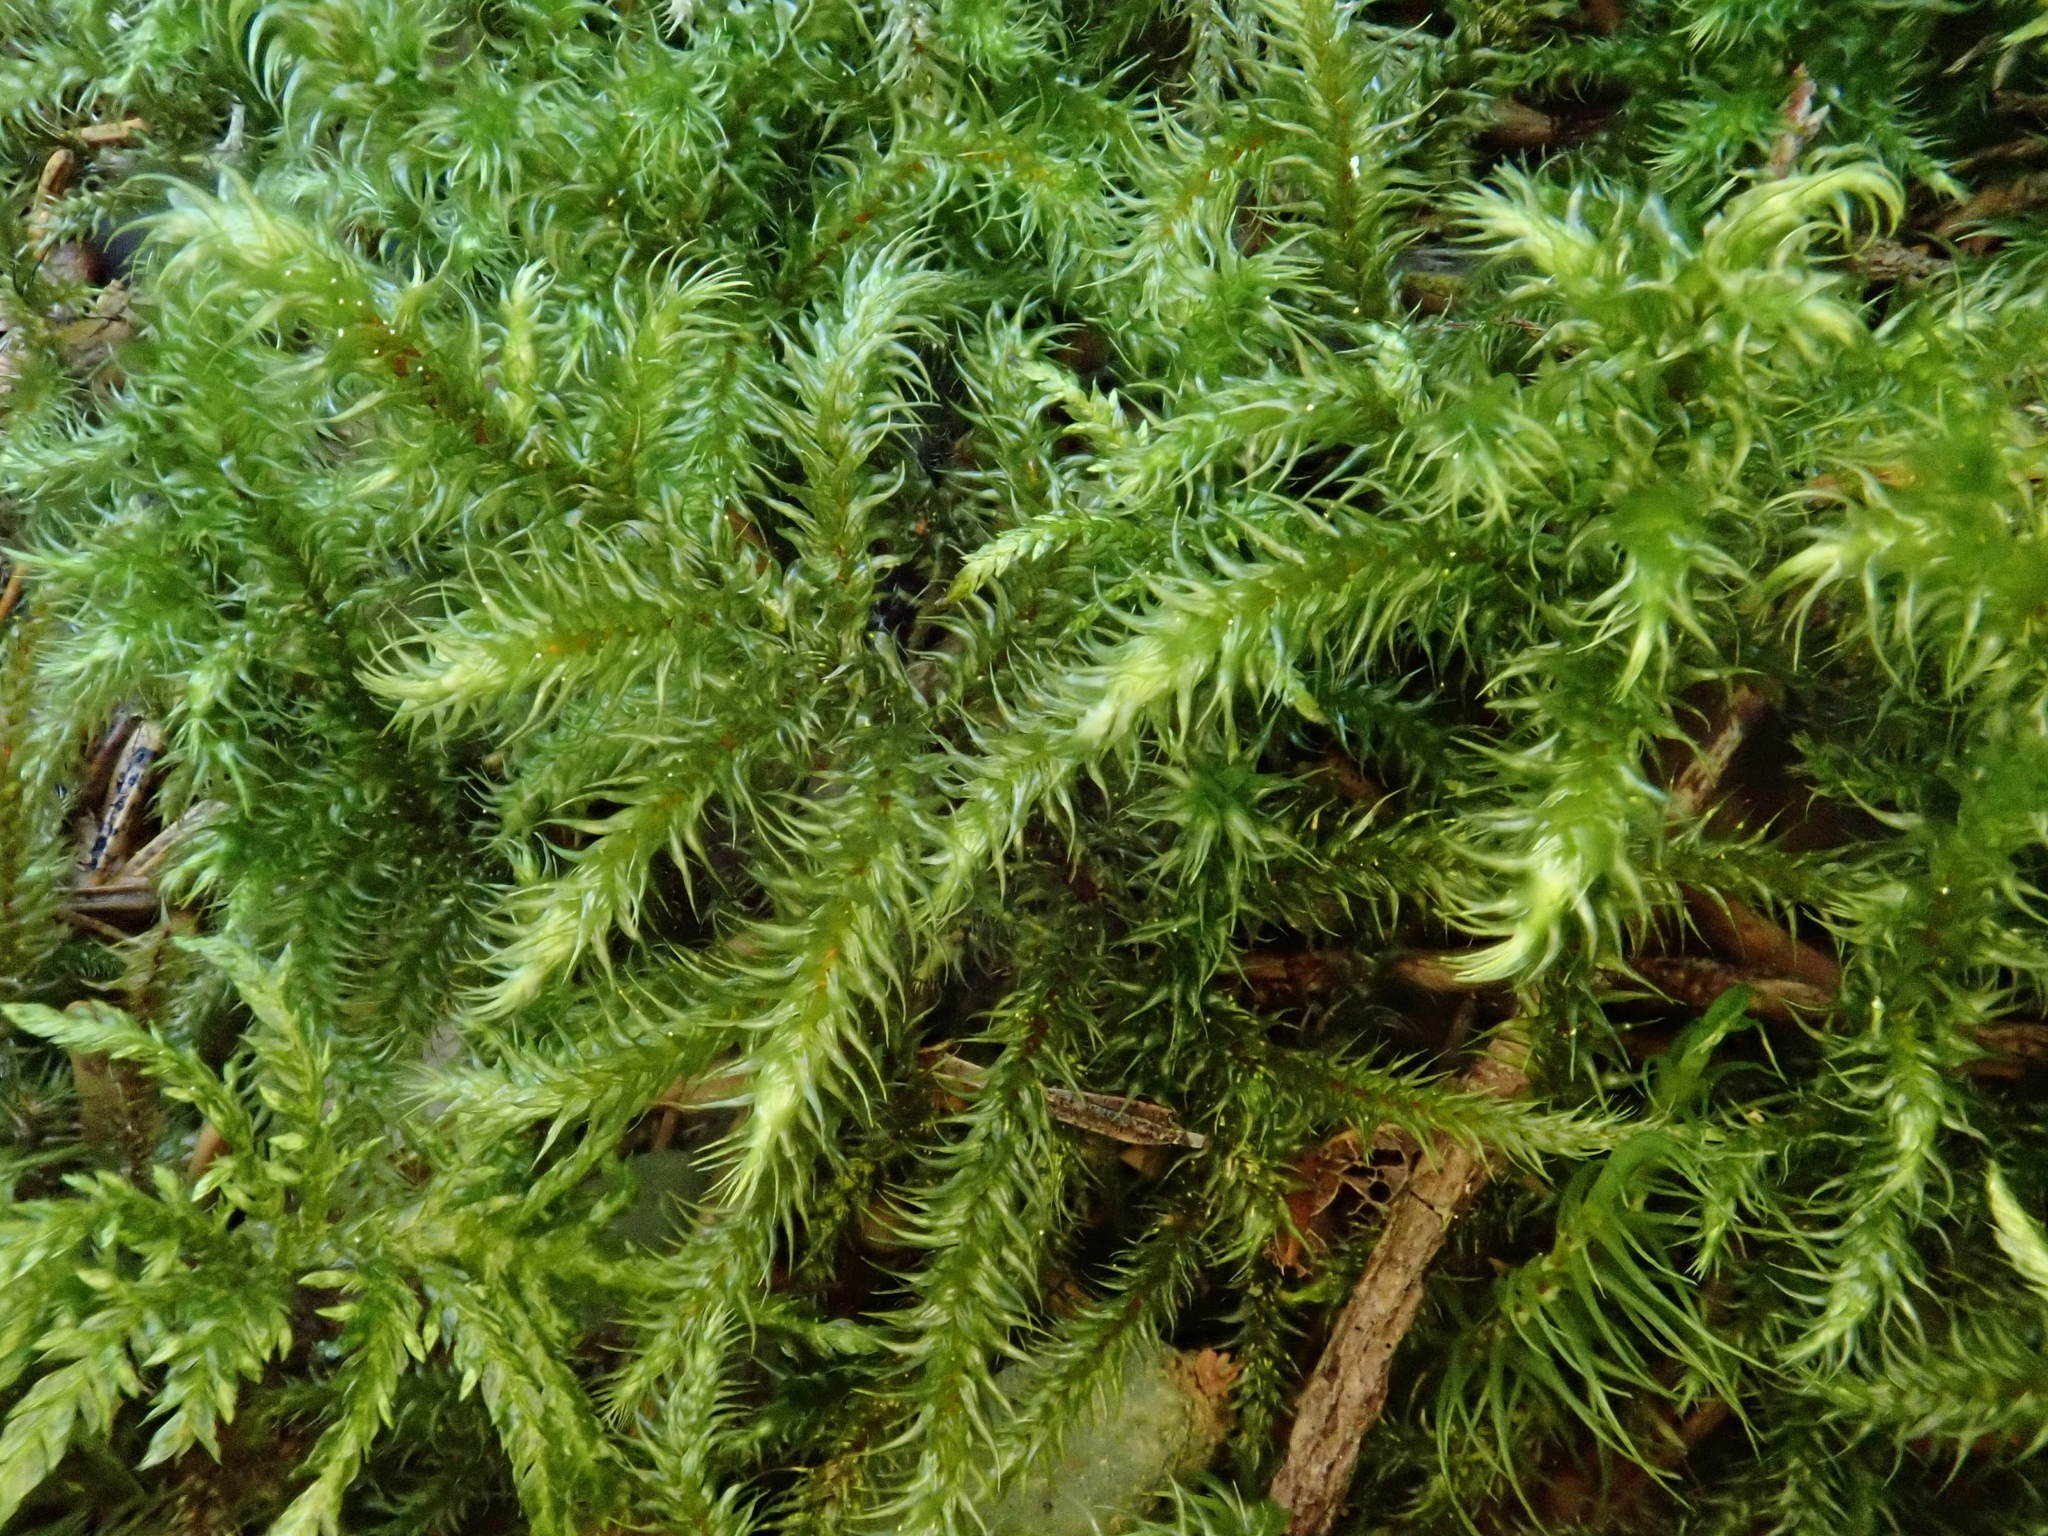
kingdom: Plantae
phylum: Bryophyta
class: Bryopsida
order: Hypnales
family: Hylocomiaceae
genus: Rhytidiadelphus
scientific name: Rhytidiadelphus loreus
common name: Lanky moss
